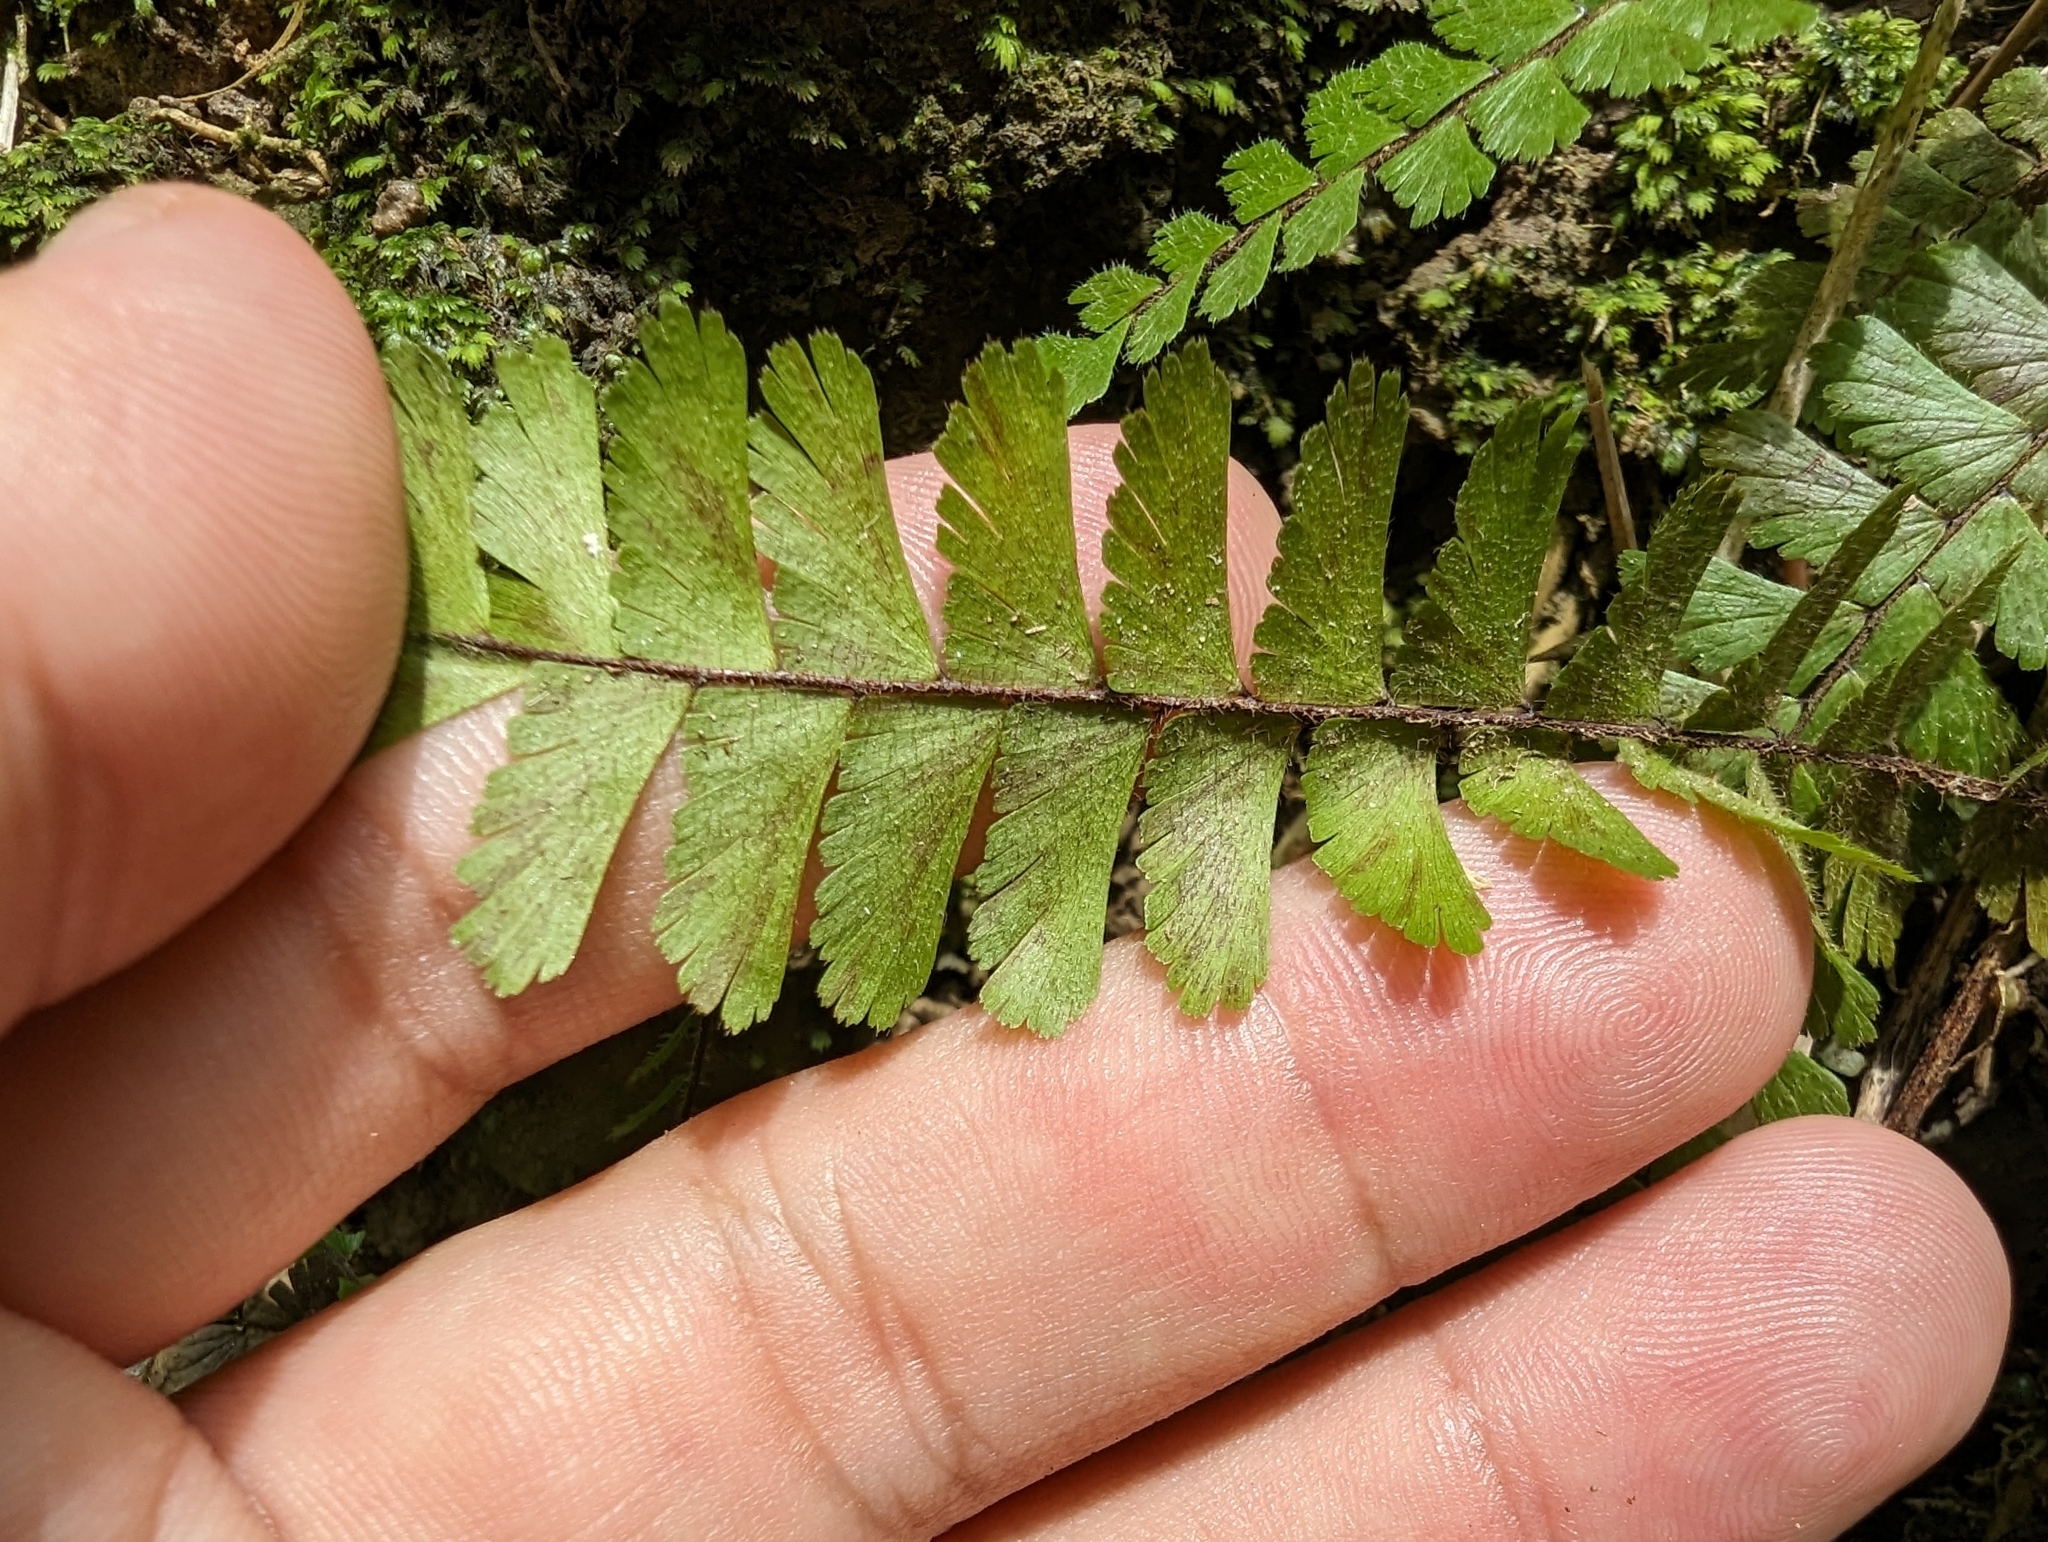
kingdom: Plantae
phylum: Tracheophyta
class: Polypodiopsida
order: Polypodiales
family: Pteridaceae
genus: Adiantum
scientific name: Adiantum caudatum
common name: Tailed maidenhair
